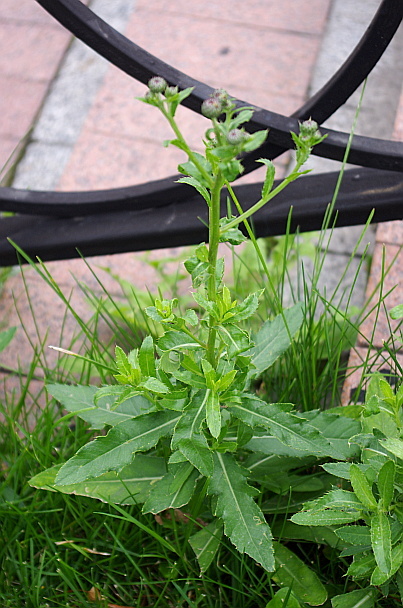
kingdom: Plantae
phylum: Tracheophyta
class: Magnoliopsida
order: Asterales
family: Asteraceae
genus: Cirsium
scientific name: Cirsium arvense
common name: Creeping thistle
